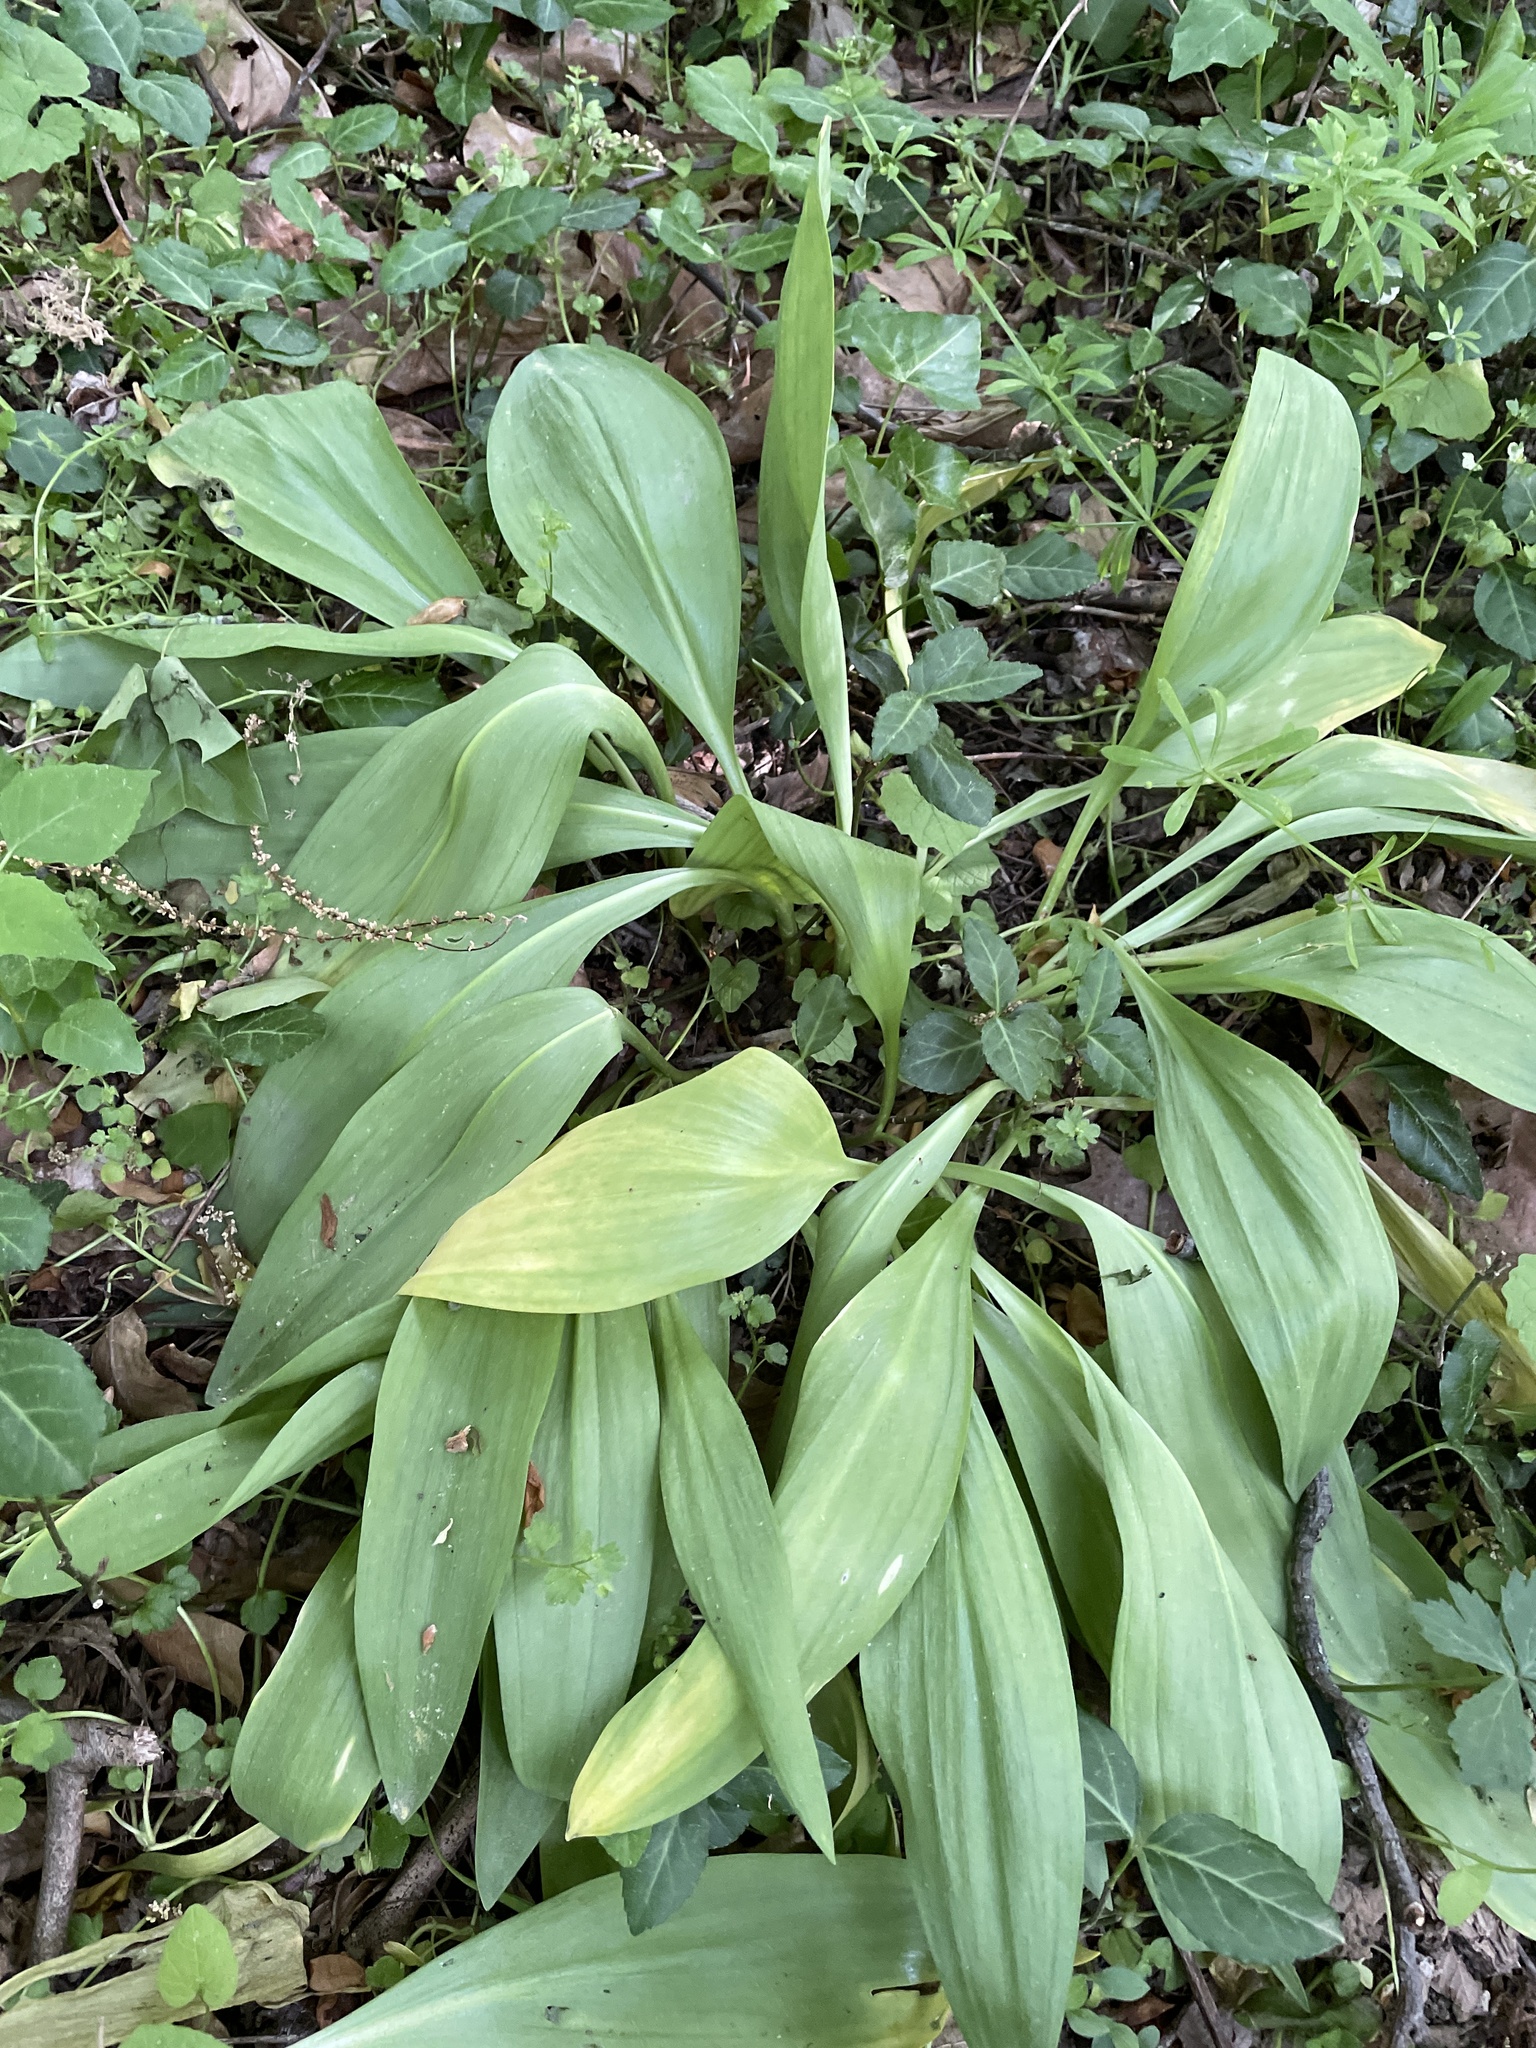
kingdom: Plantae
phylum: Tracheophyta
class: Liliopsida
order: Asparagales
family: Amaryllidaceae
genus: Allium
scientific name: Allium tricoccum
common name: Ramp
